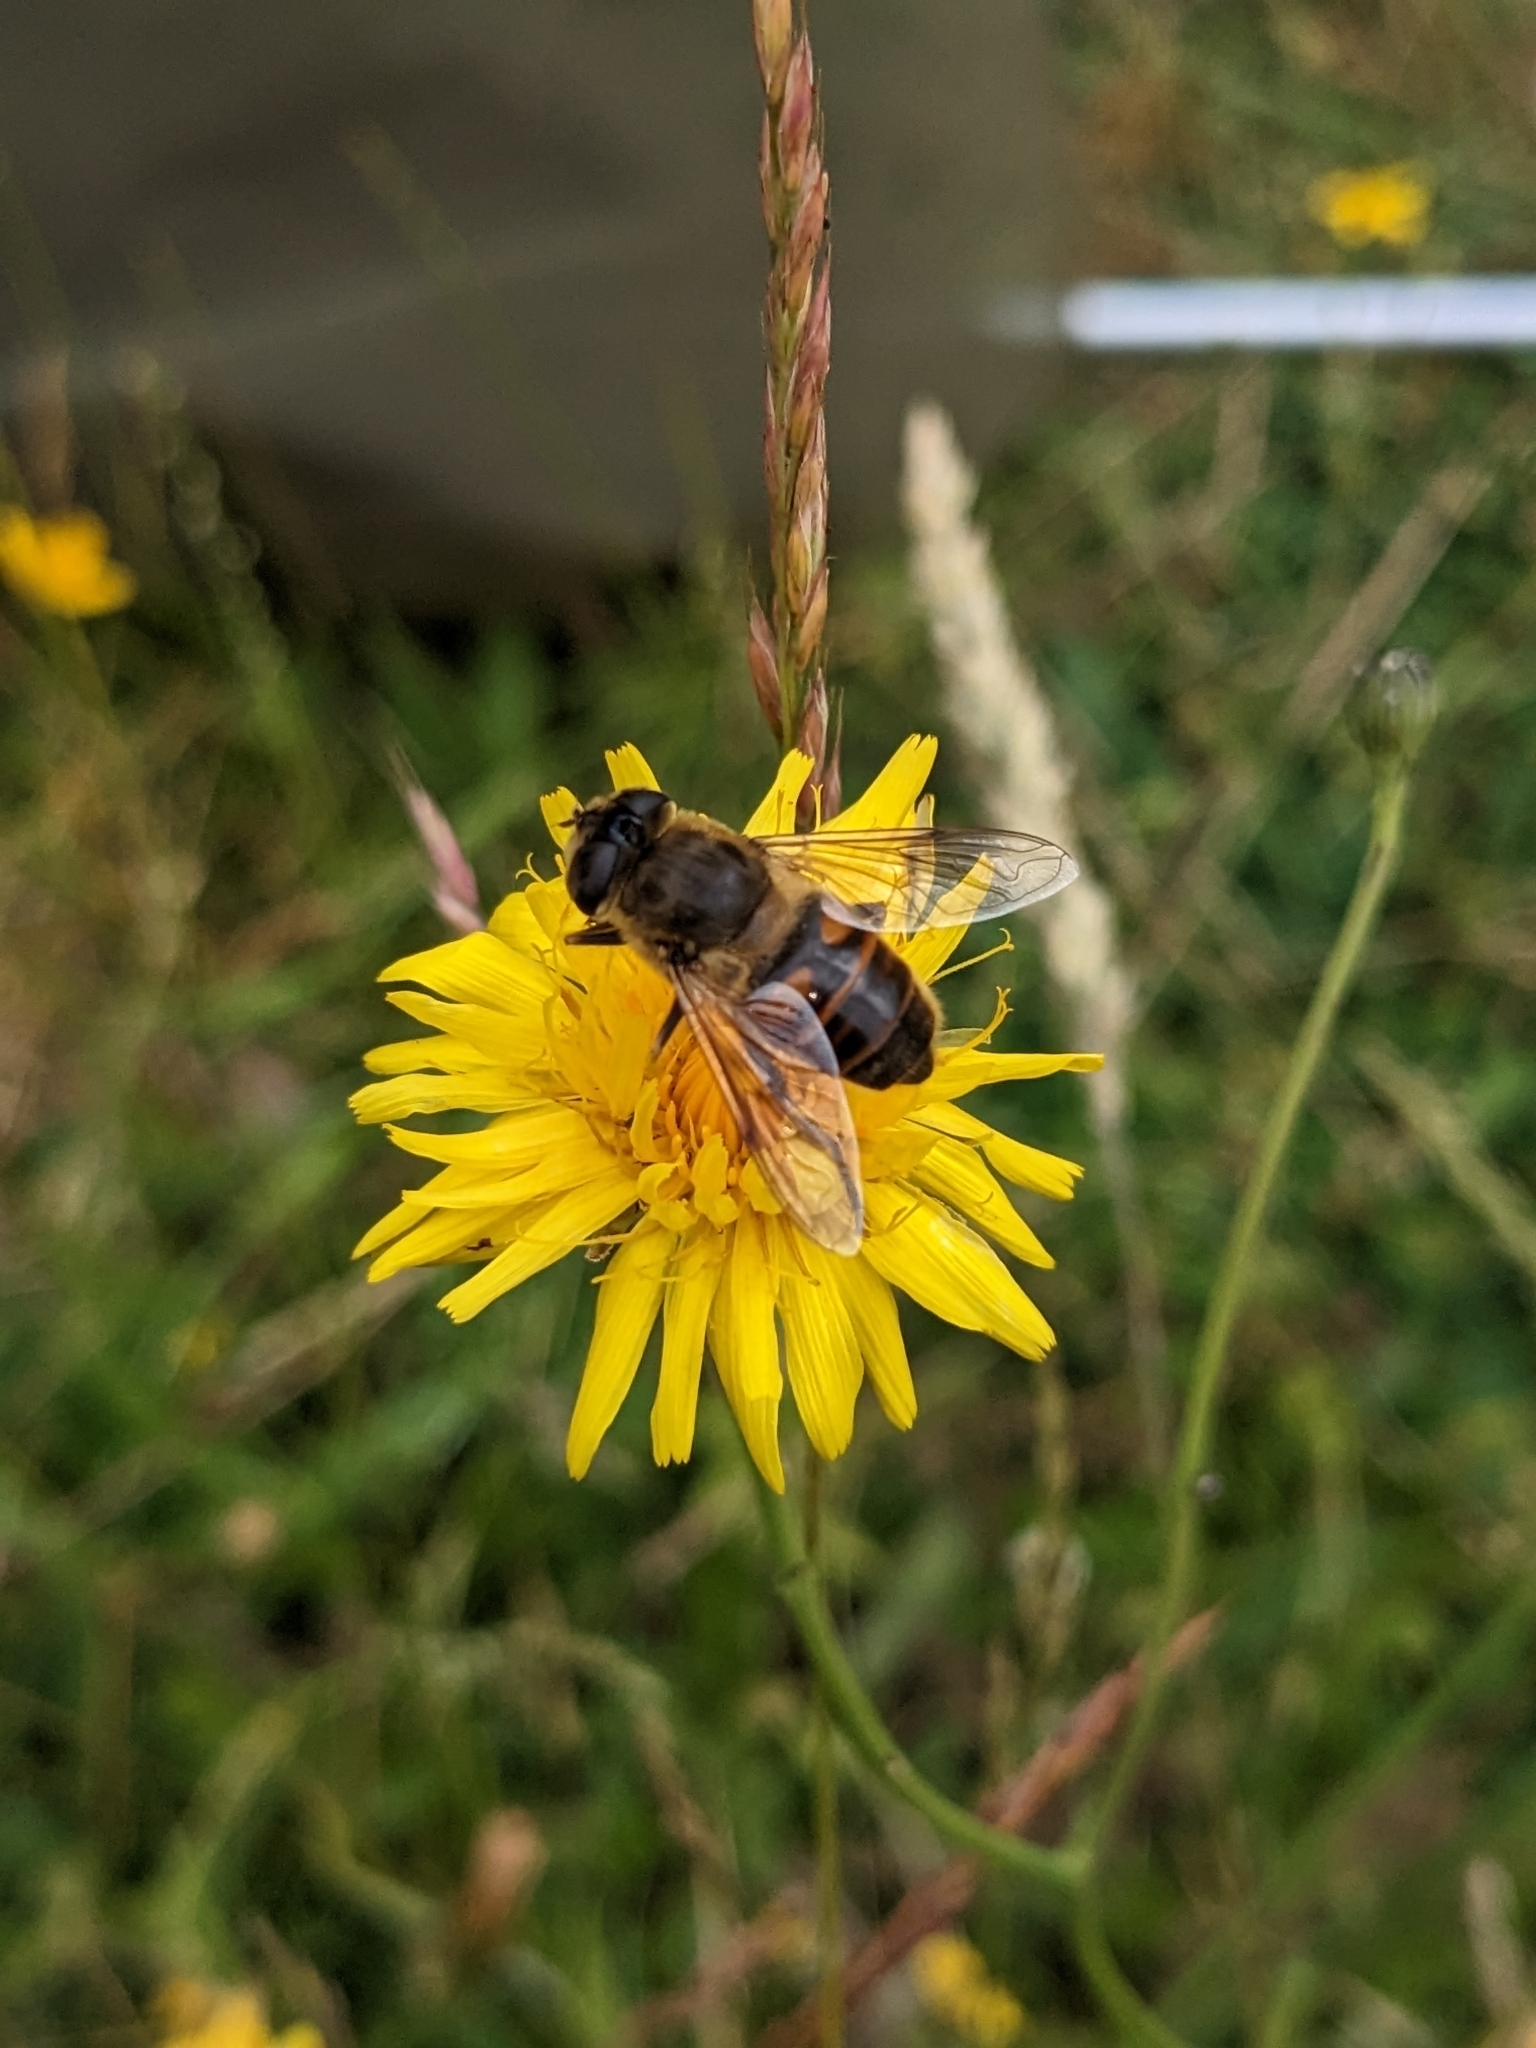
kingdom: Animalia
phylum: Arthropoda
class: Insecta
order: Diptera
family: Syrphidae
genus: Eristalis
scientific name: Eristalis tenax
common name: Drone fly
